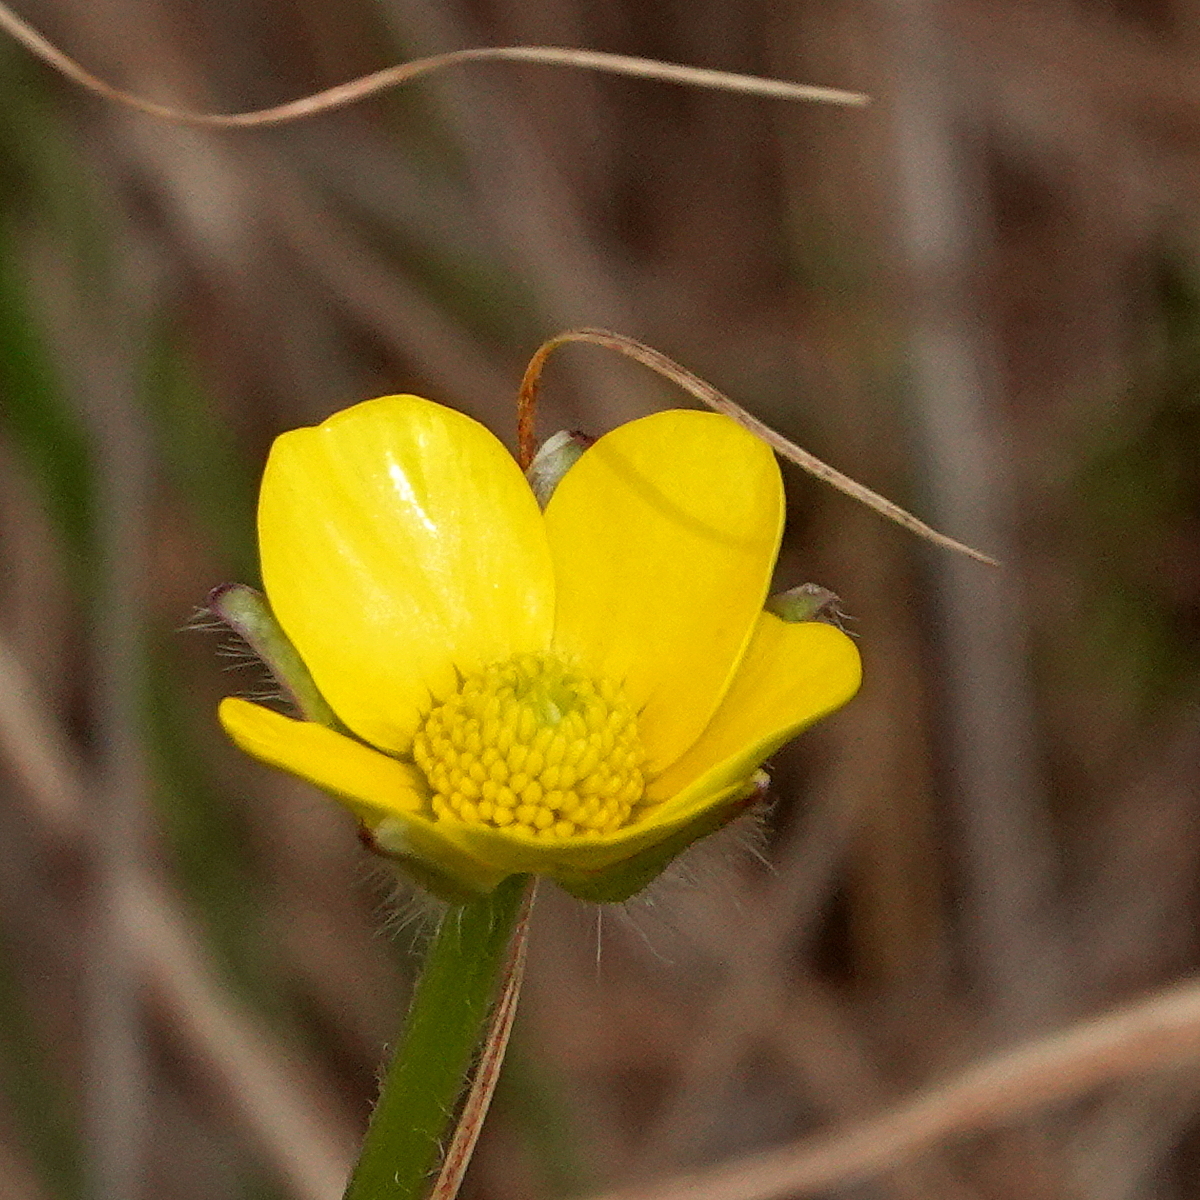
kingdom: Plantae
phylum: Tracheophyta
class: Magnoliopsida
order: Ranunculales
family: Ranunculaceae
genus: Ranunculus
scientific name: Ranunculus lappaceus
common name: Australian buttercup
